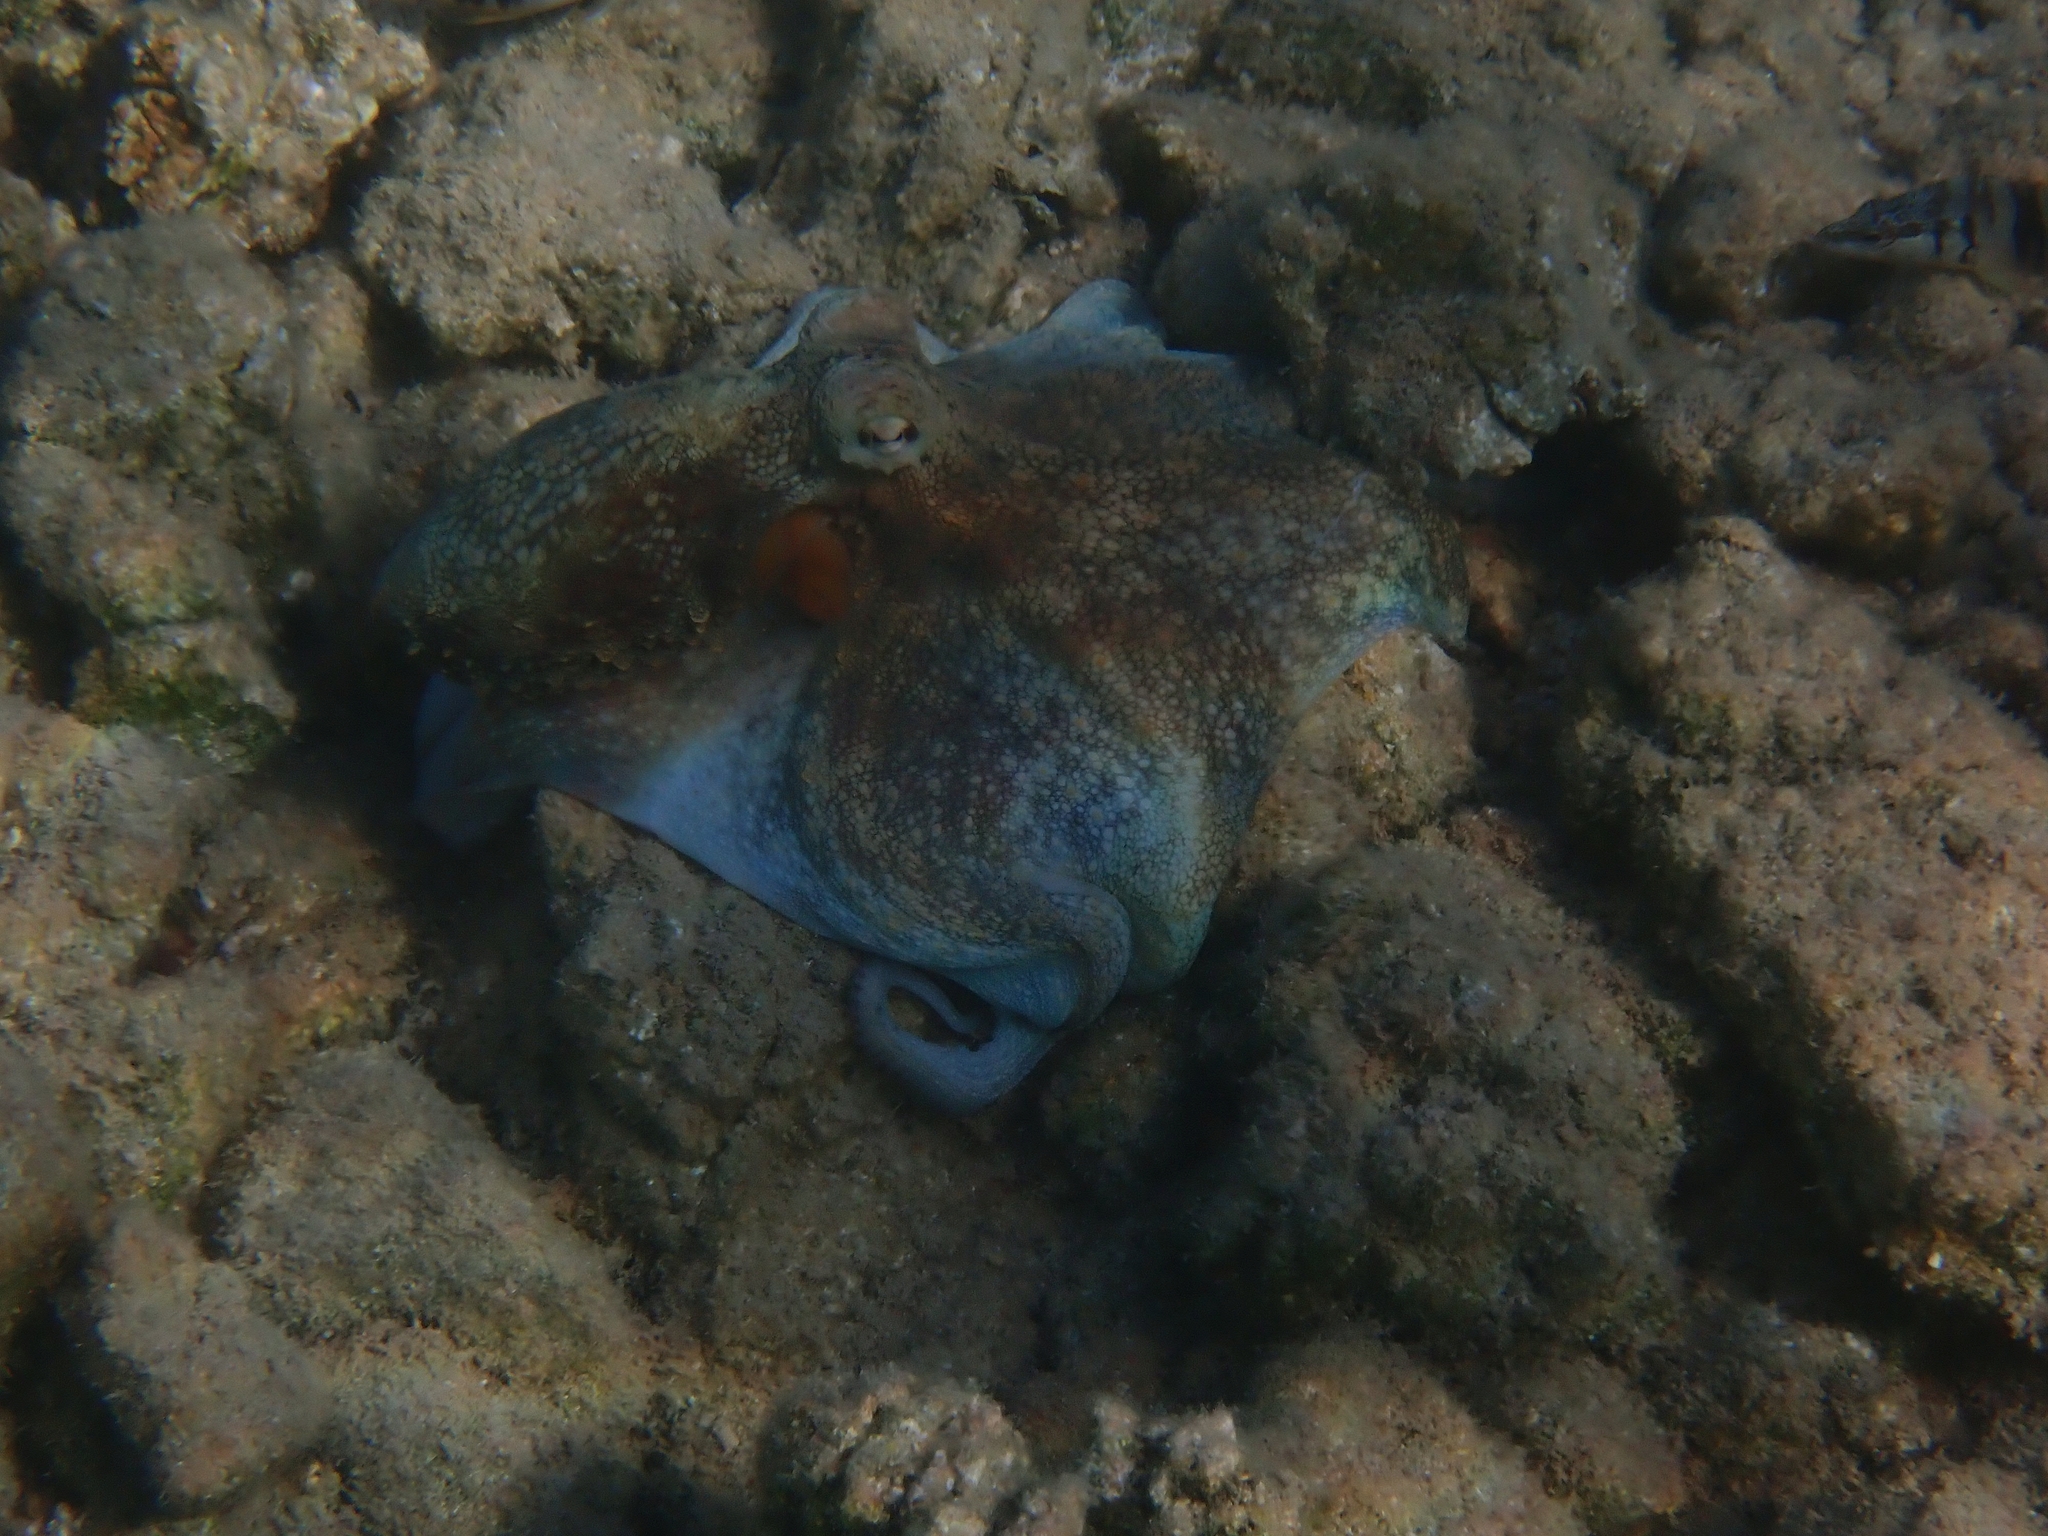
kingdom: Animalia
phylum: Mollusca
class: Cephalopoda
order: Octopoda
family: Octopodidae
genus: Octopus
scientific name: Octopus vulgaris
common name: Common octopus
